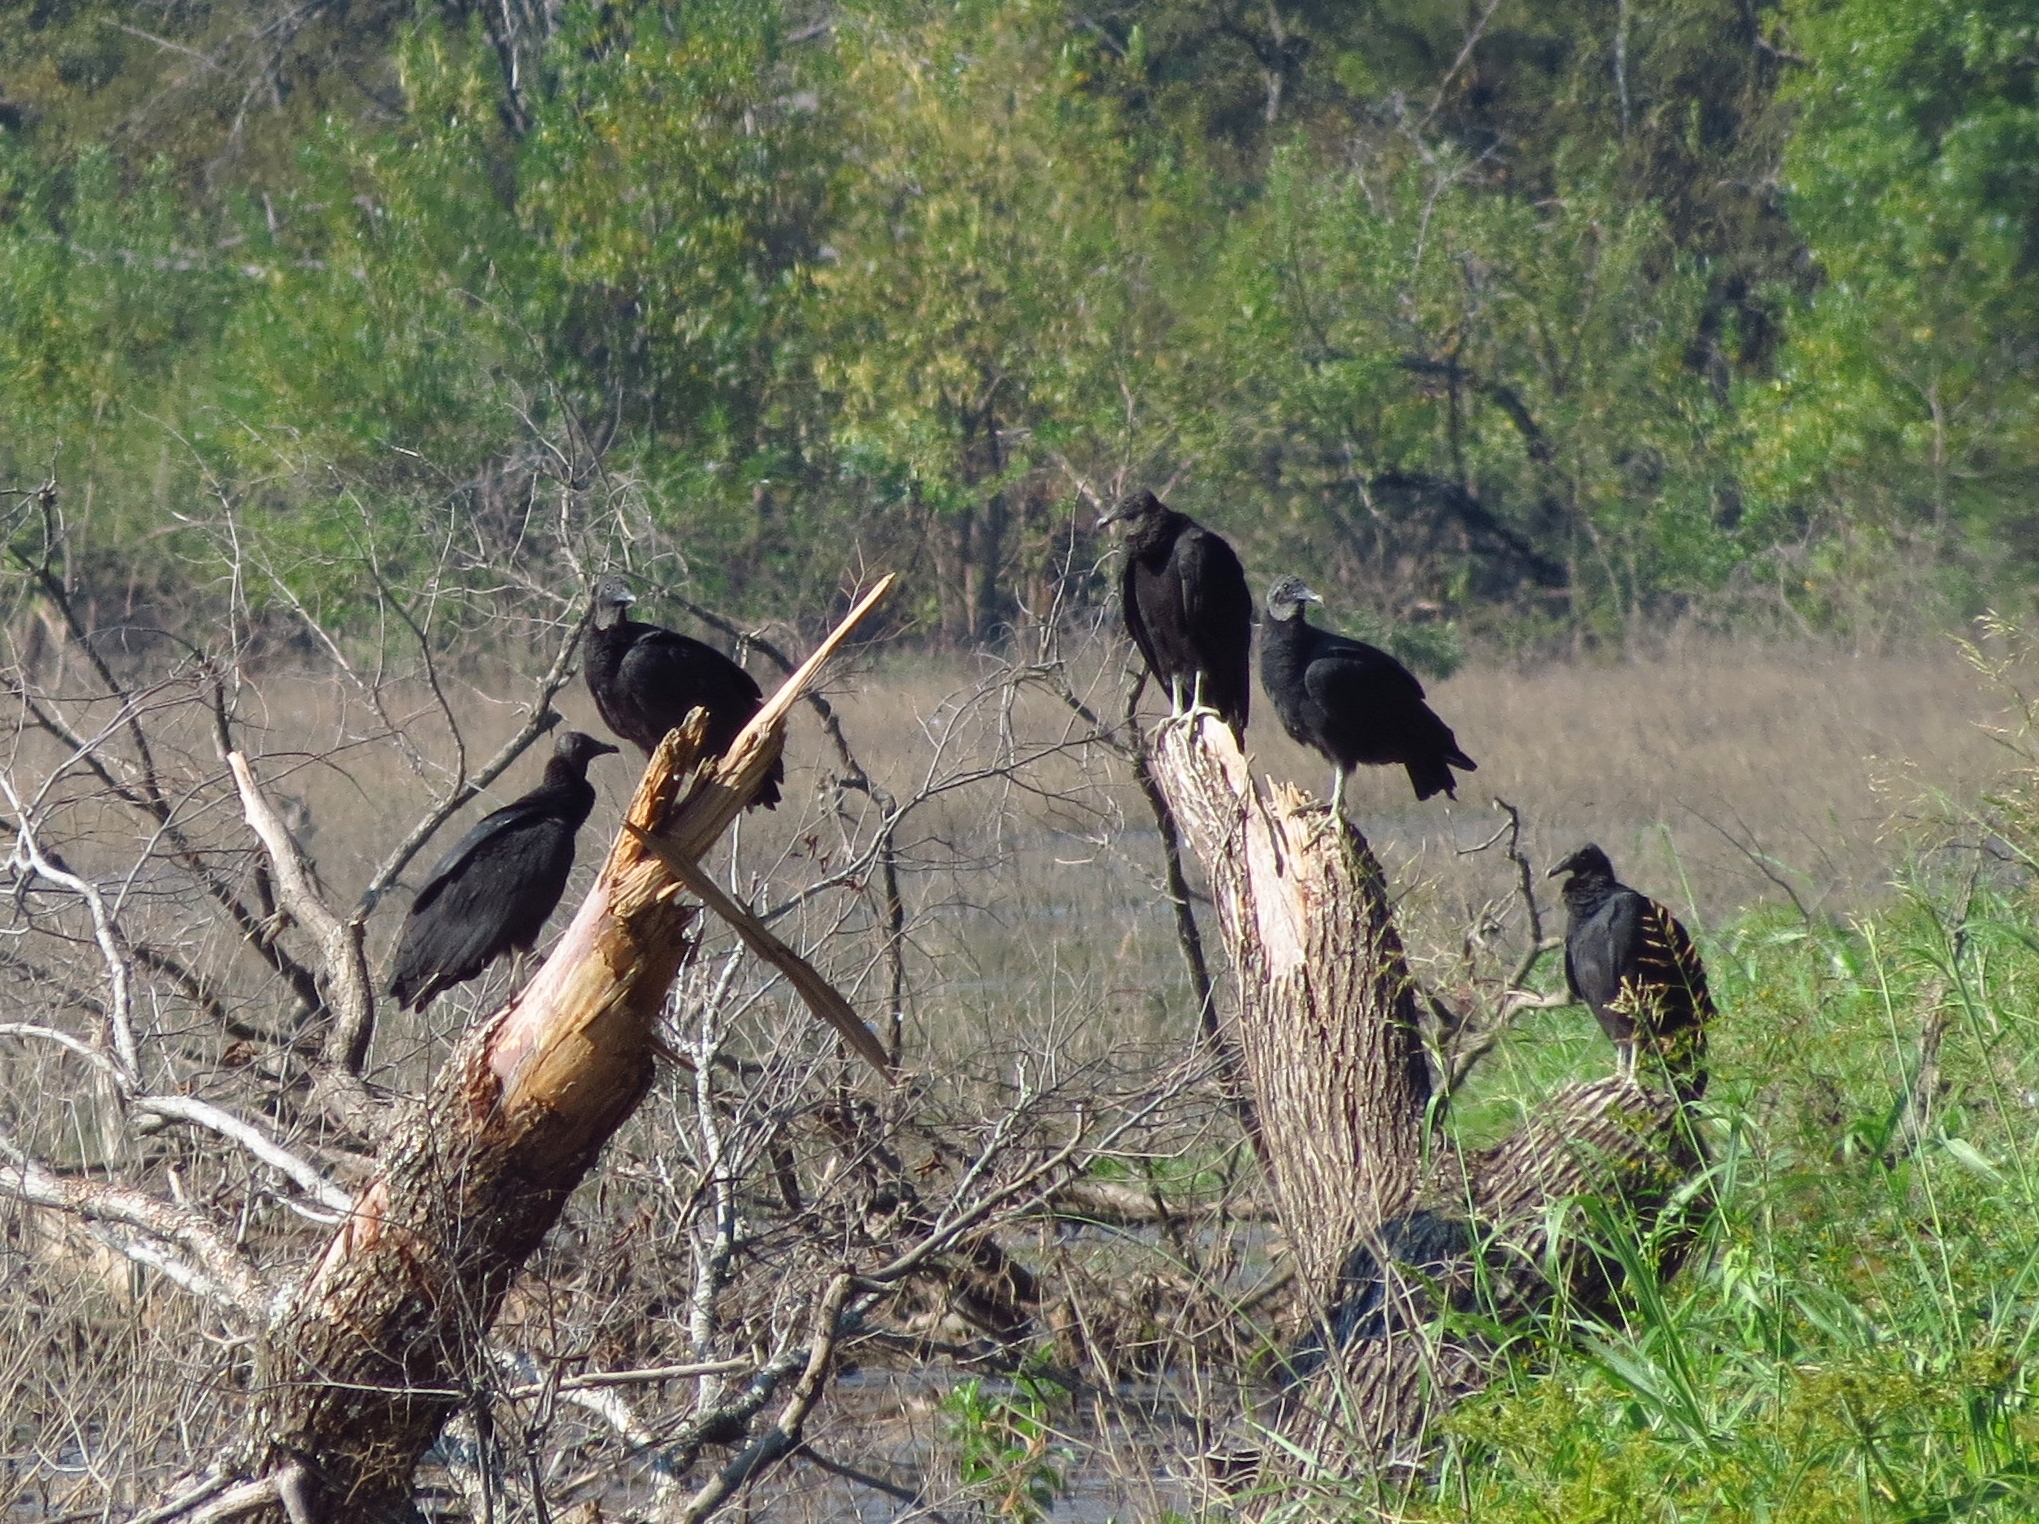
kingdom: Animalia
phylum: Chordata
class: Aves
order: Accipitriformes
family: Cathartidae
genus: Coragyps
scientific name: Coragyps atratus
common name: Black vulture
